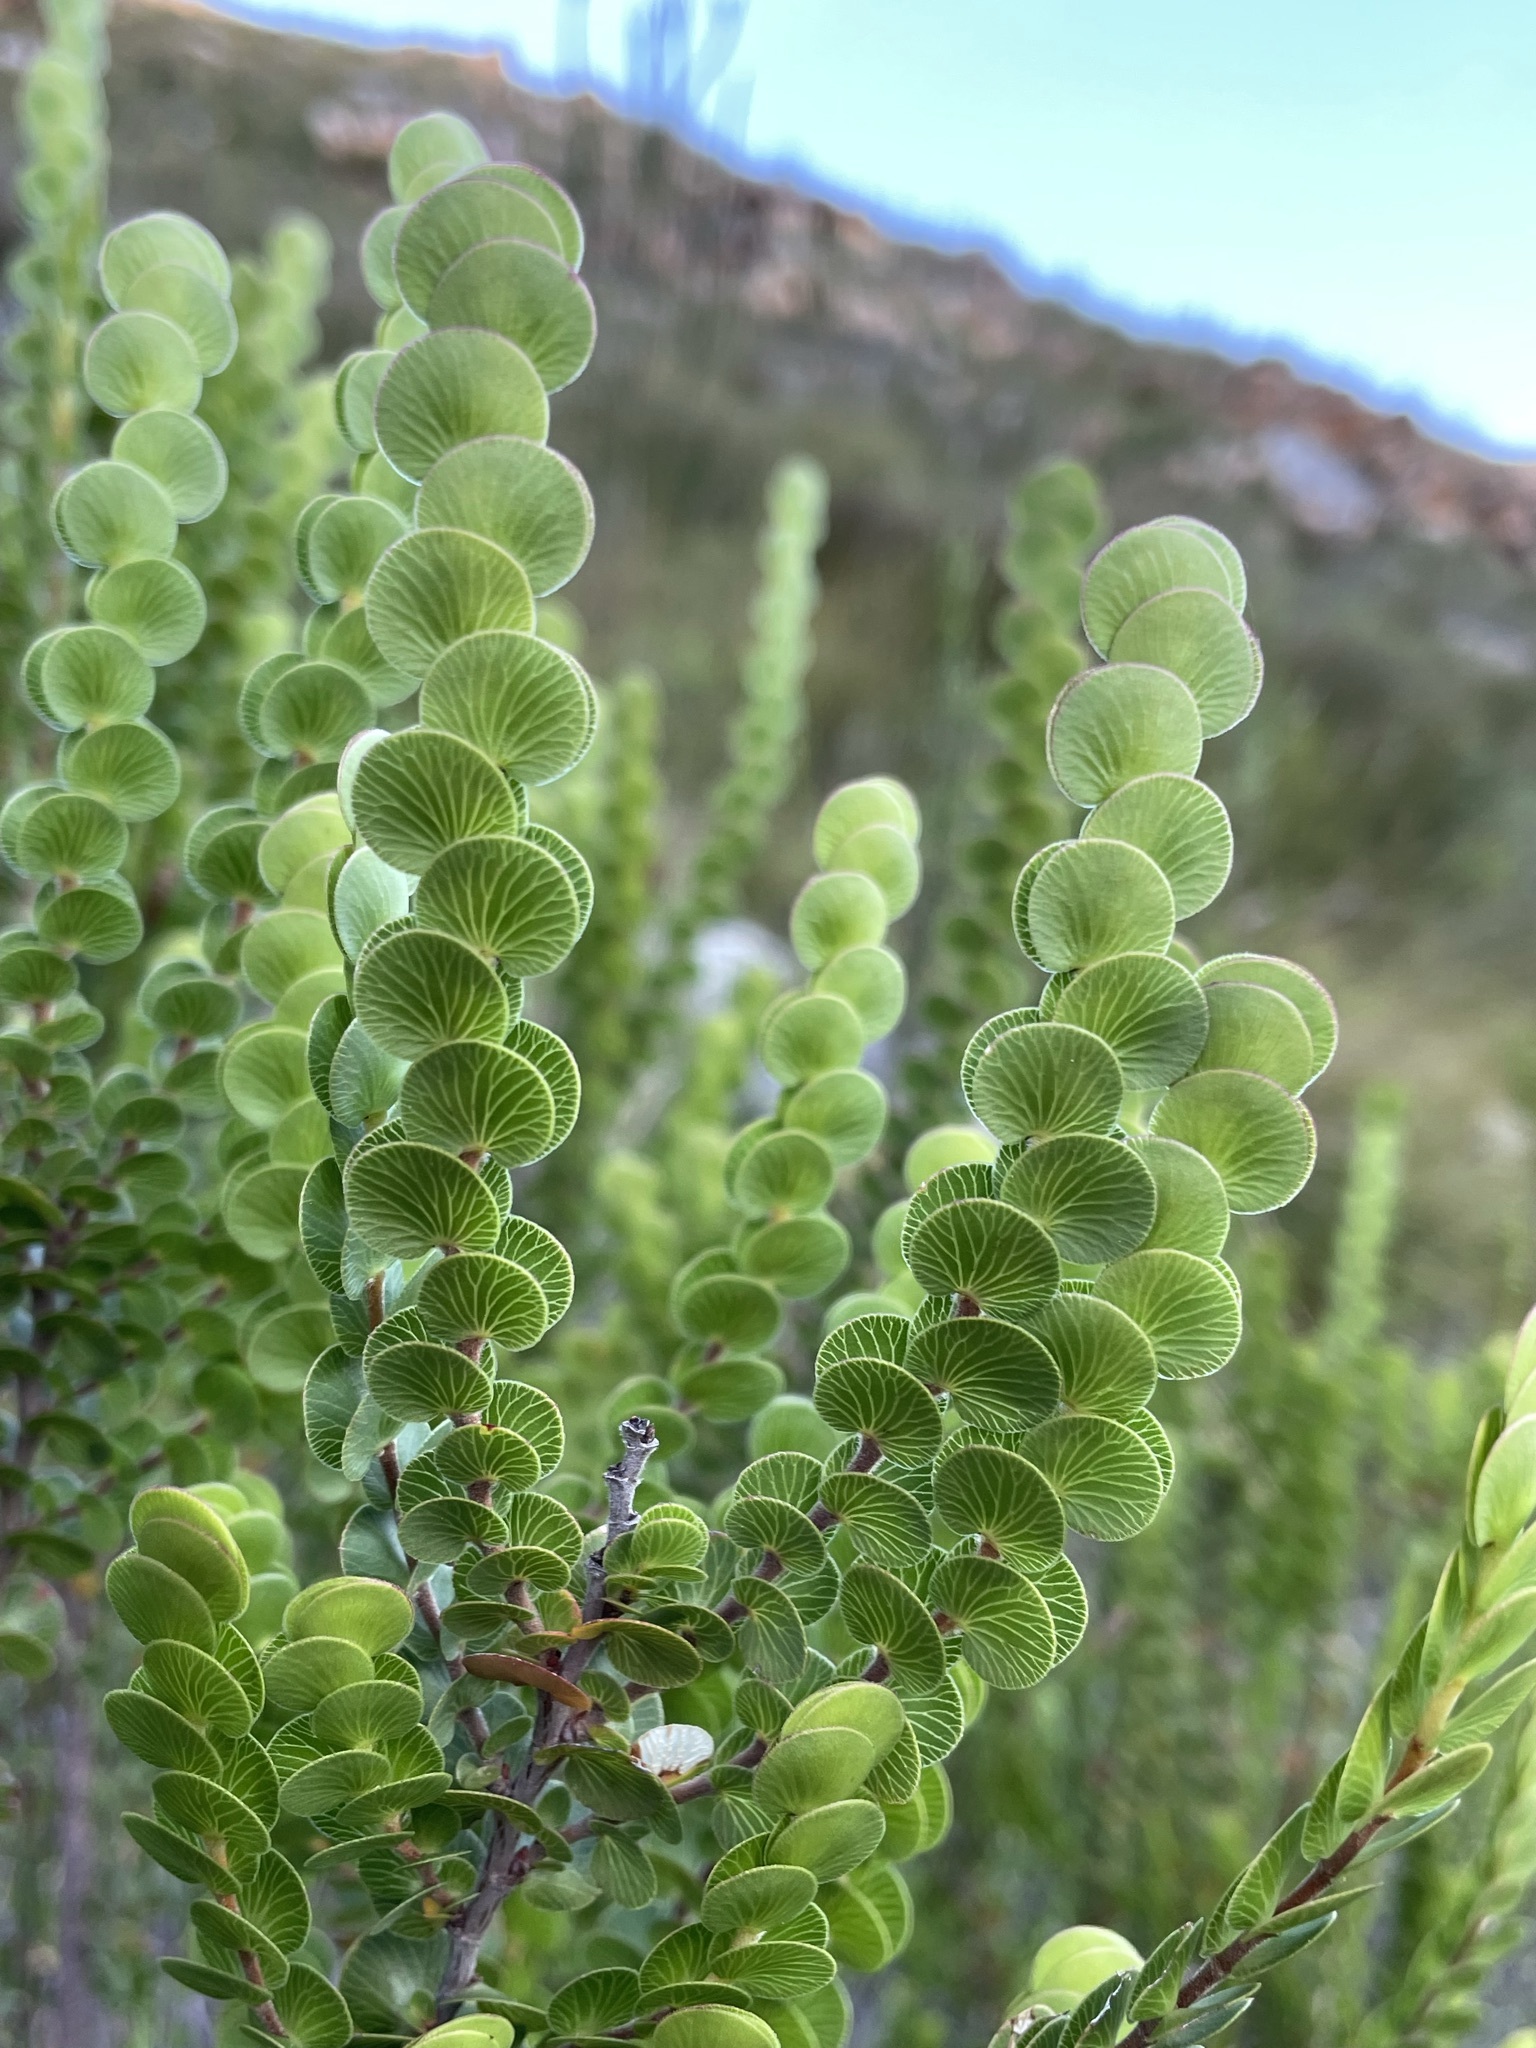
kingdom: Plantae
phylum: Tracheophyta
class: Magnoliopsida
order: Rosales
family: Rosaceae
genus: Cliffortia
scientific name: Cliffortia pulchella
